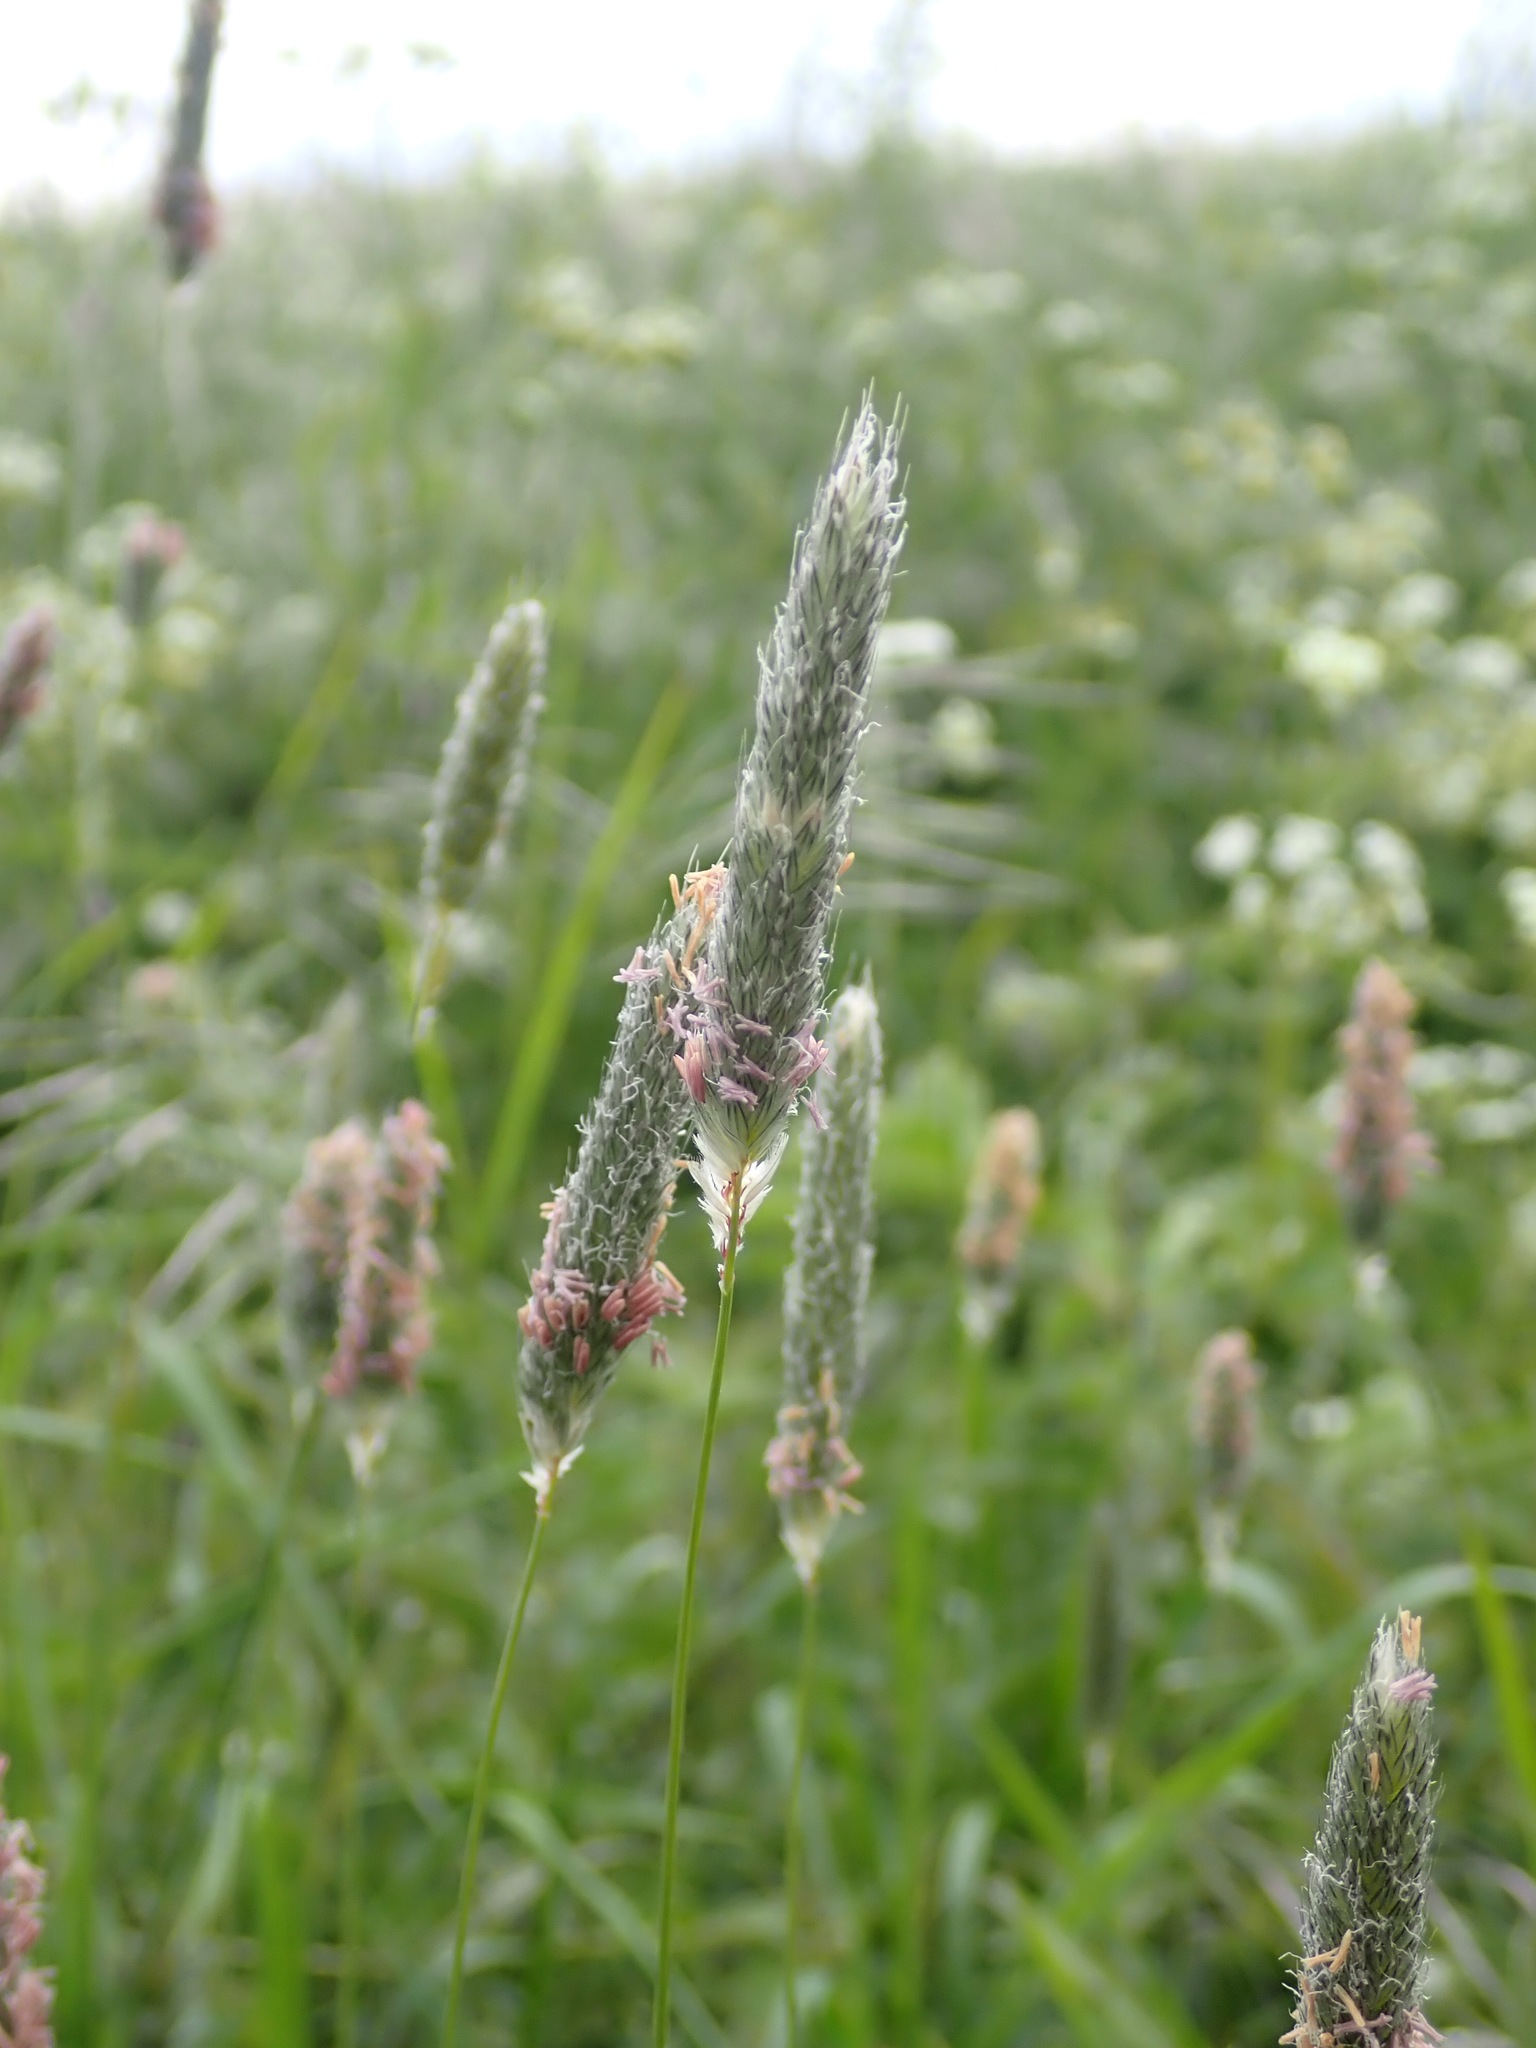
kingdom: Plantae
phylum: Tracheophyta
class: Liliopsida
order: Poales
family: Poaceae
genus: Alopecurus
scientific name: Alopecurus pratensis
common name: Meadow foxtail
